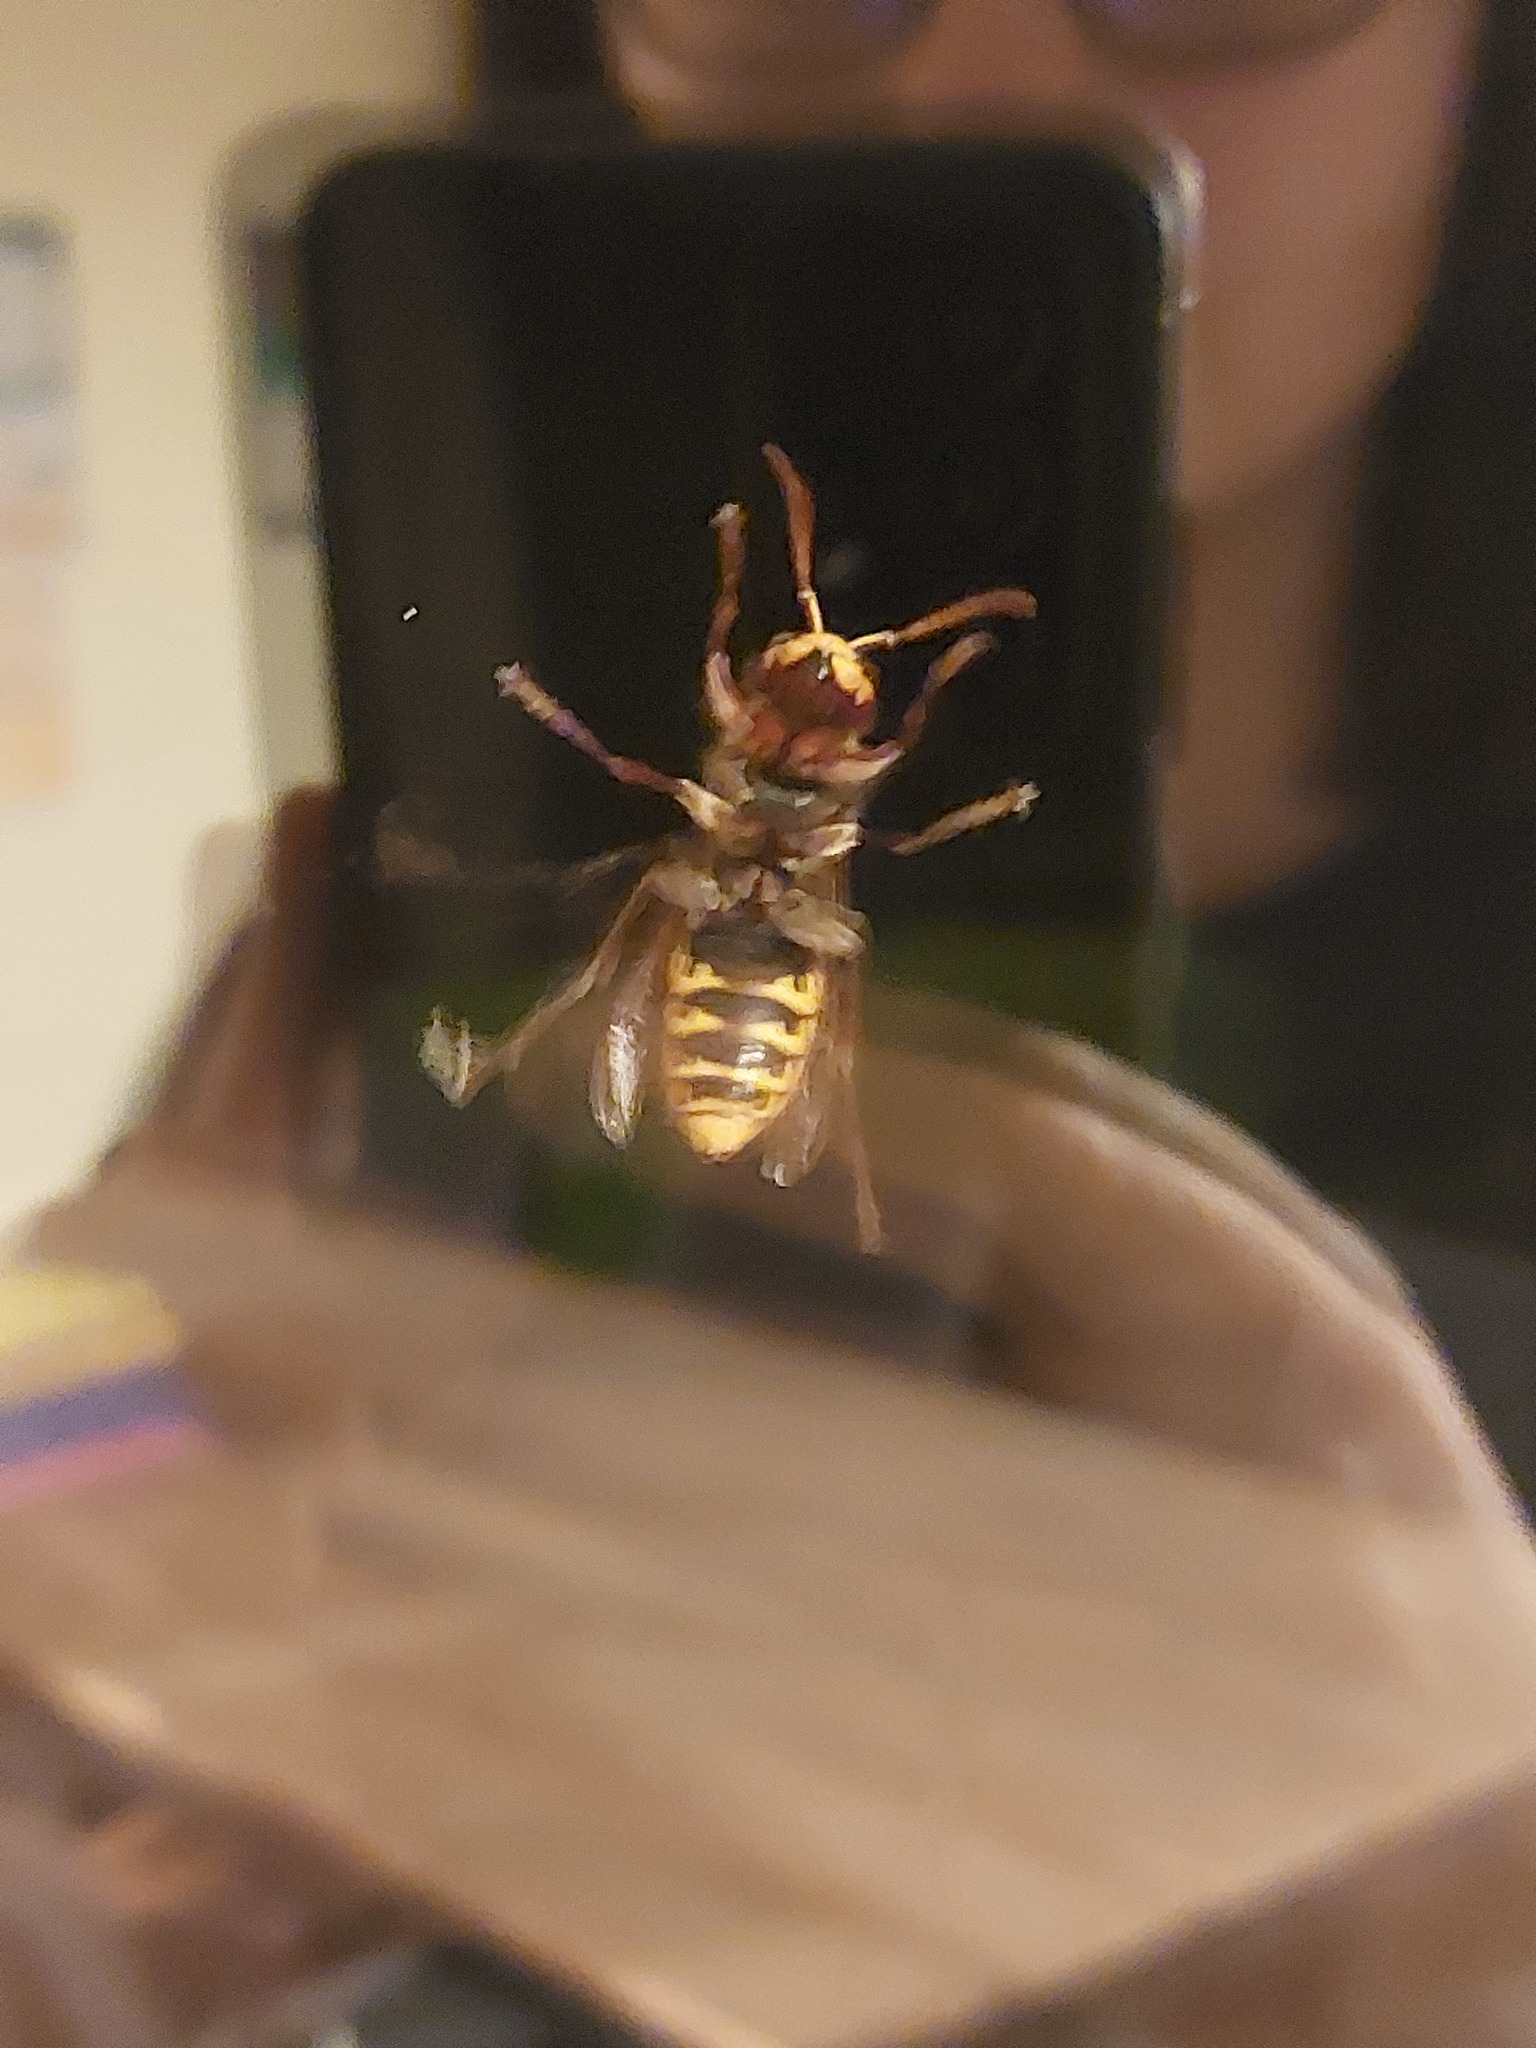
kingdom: Animalia
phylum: Arthropoda
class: Insecta
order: Hymenoptera
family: Vespidae
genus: Vespa
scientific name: Vespa crabro
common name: Hornet
